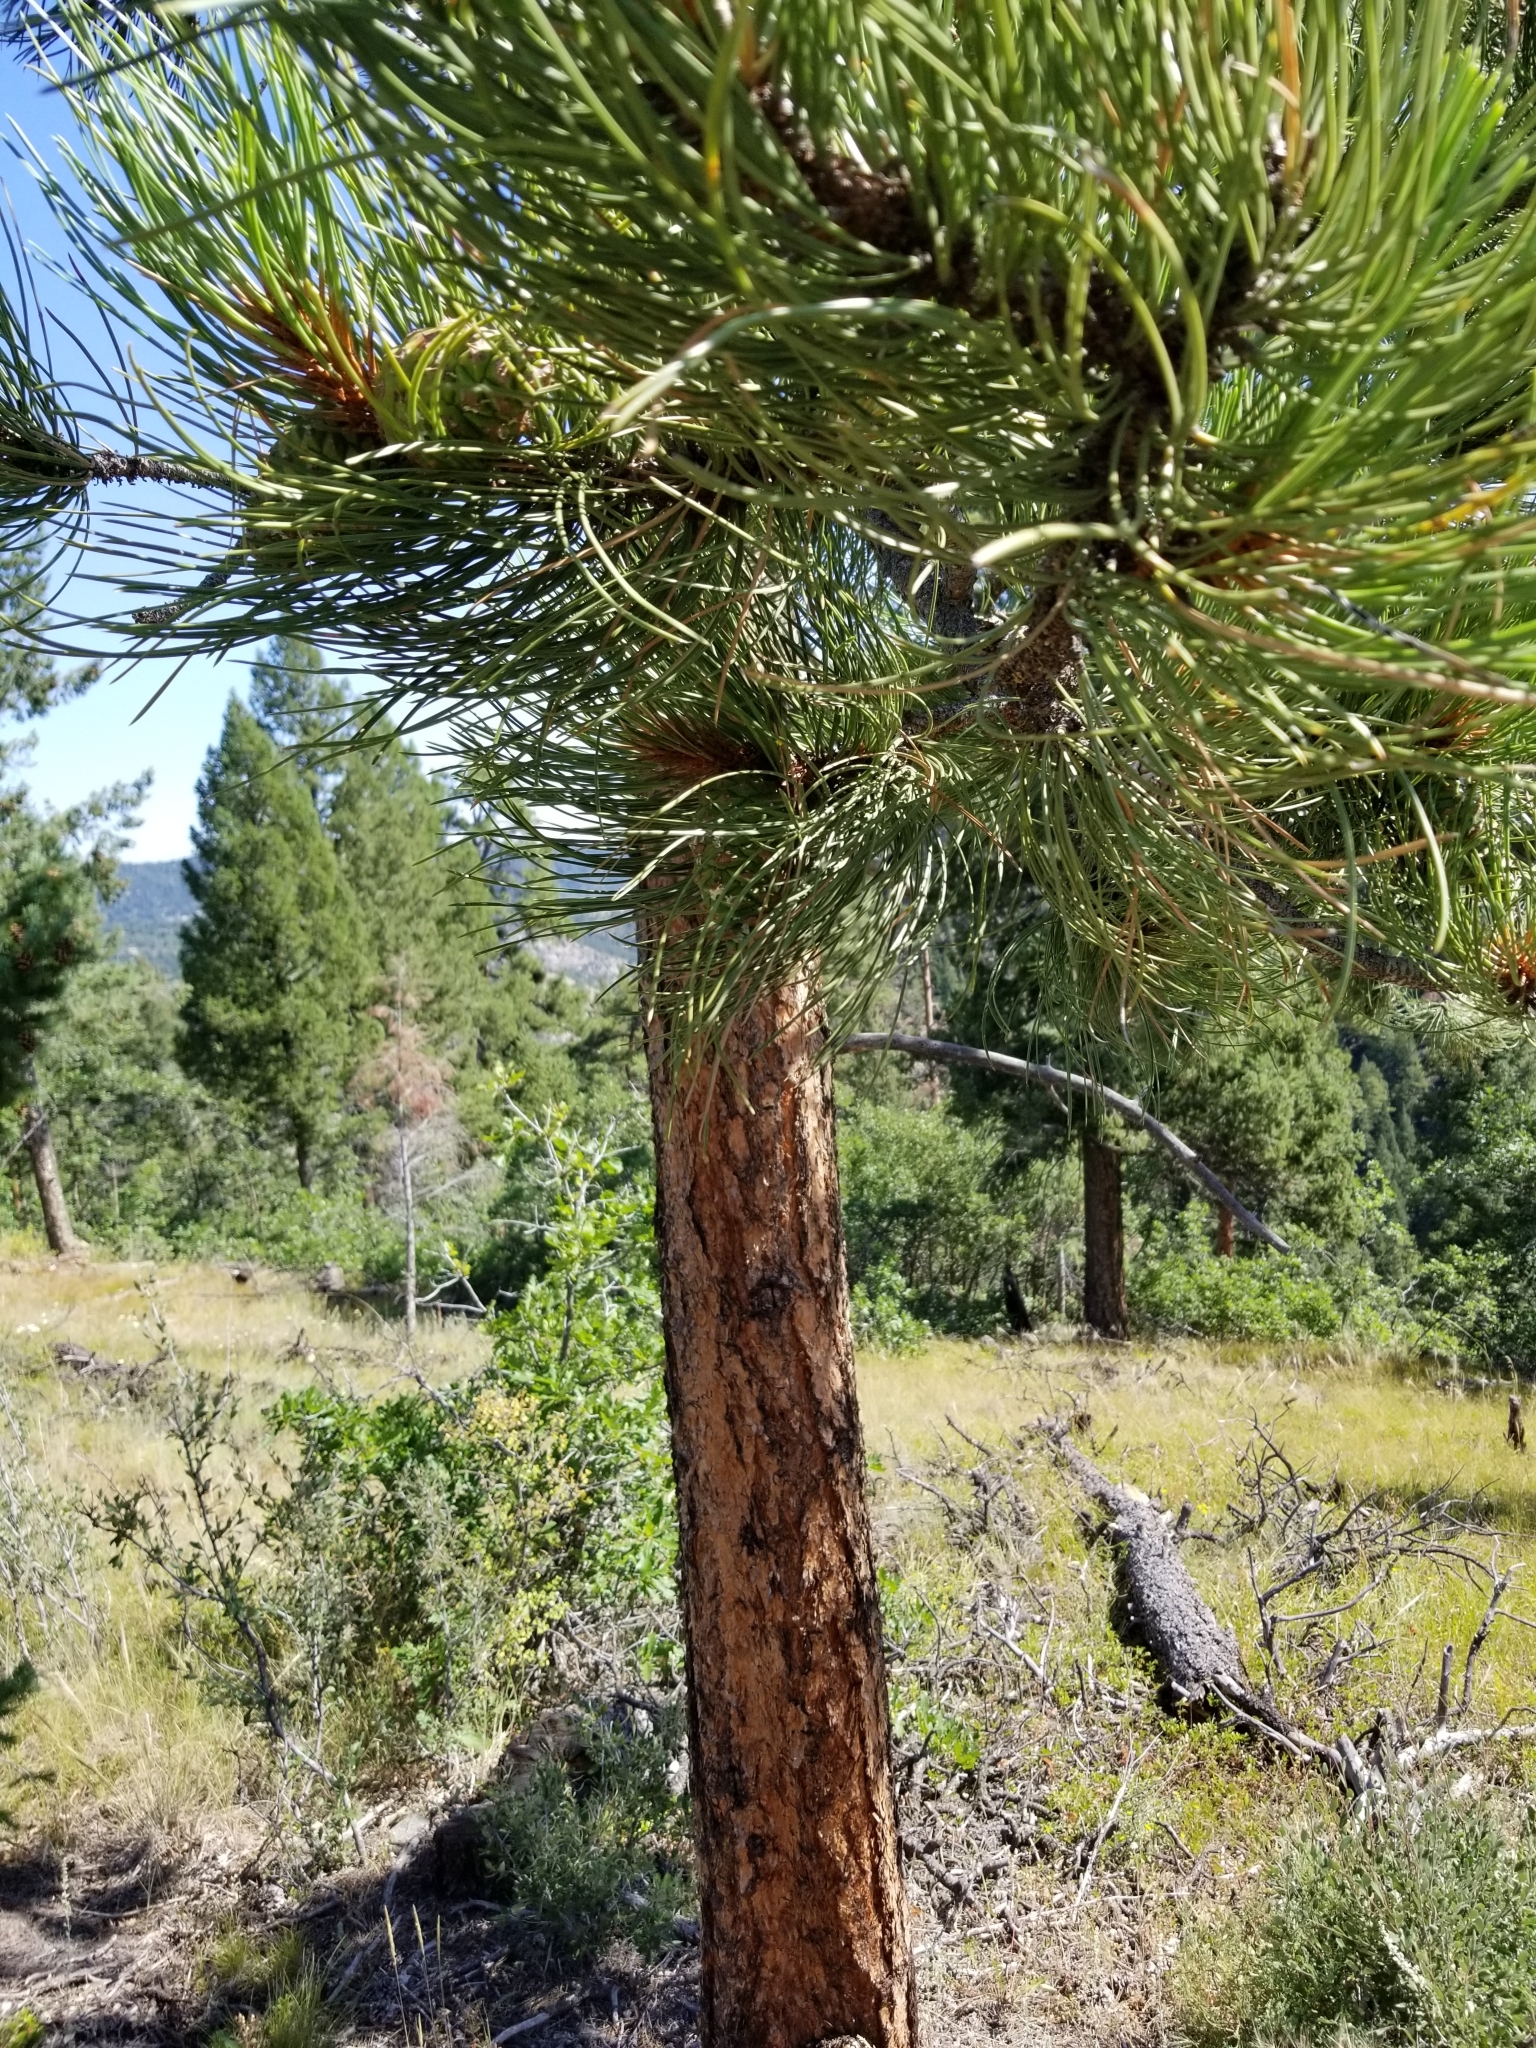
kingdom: Plantae
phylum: Tracheophyta
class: Pinopsida
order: Pinales
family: Pinaceae
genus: Pinus
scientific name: Pinus ponderosa
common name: Western yellow-pine
